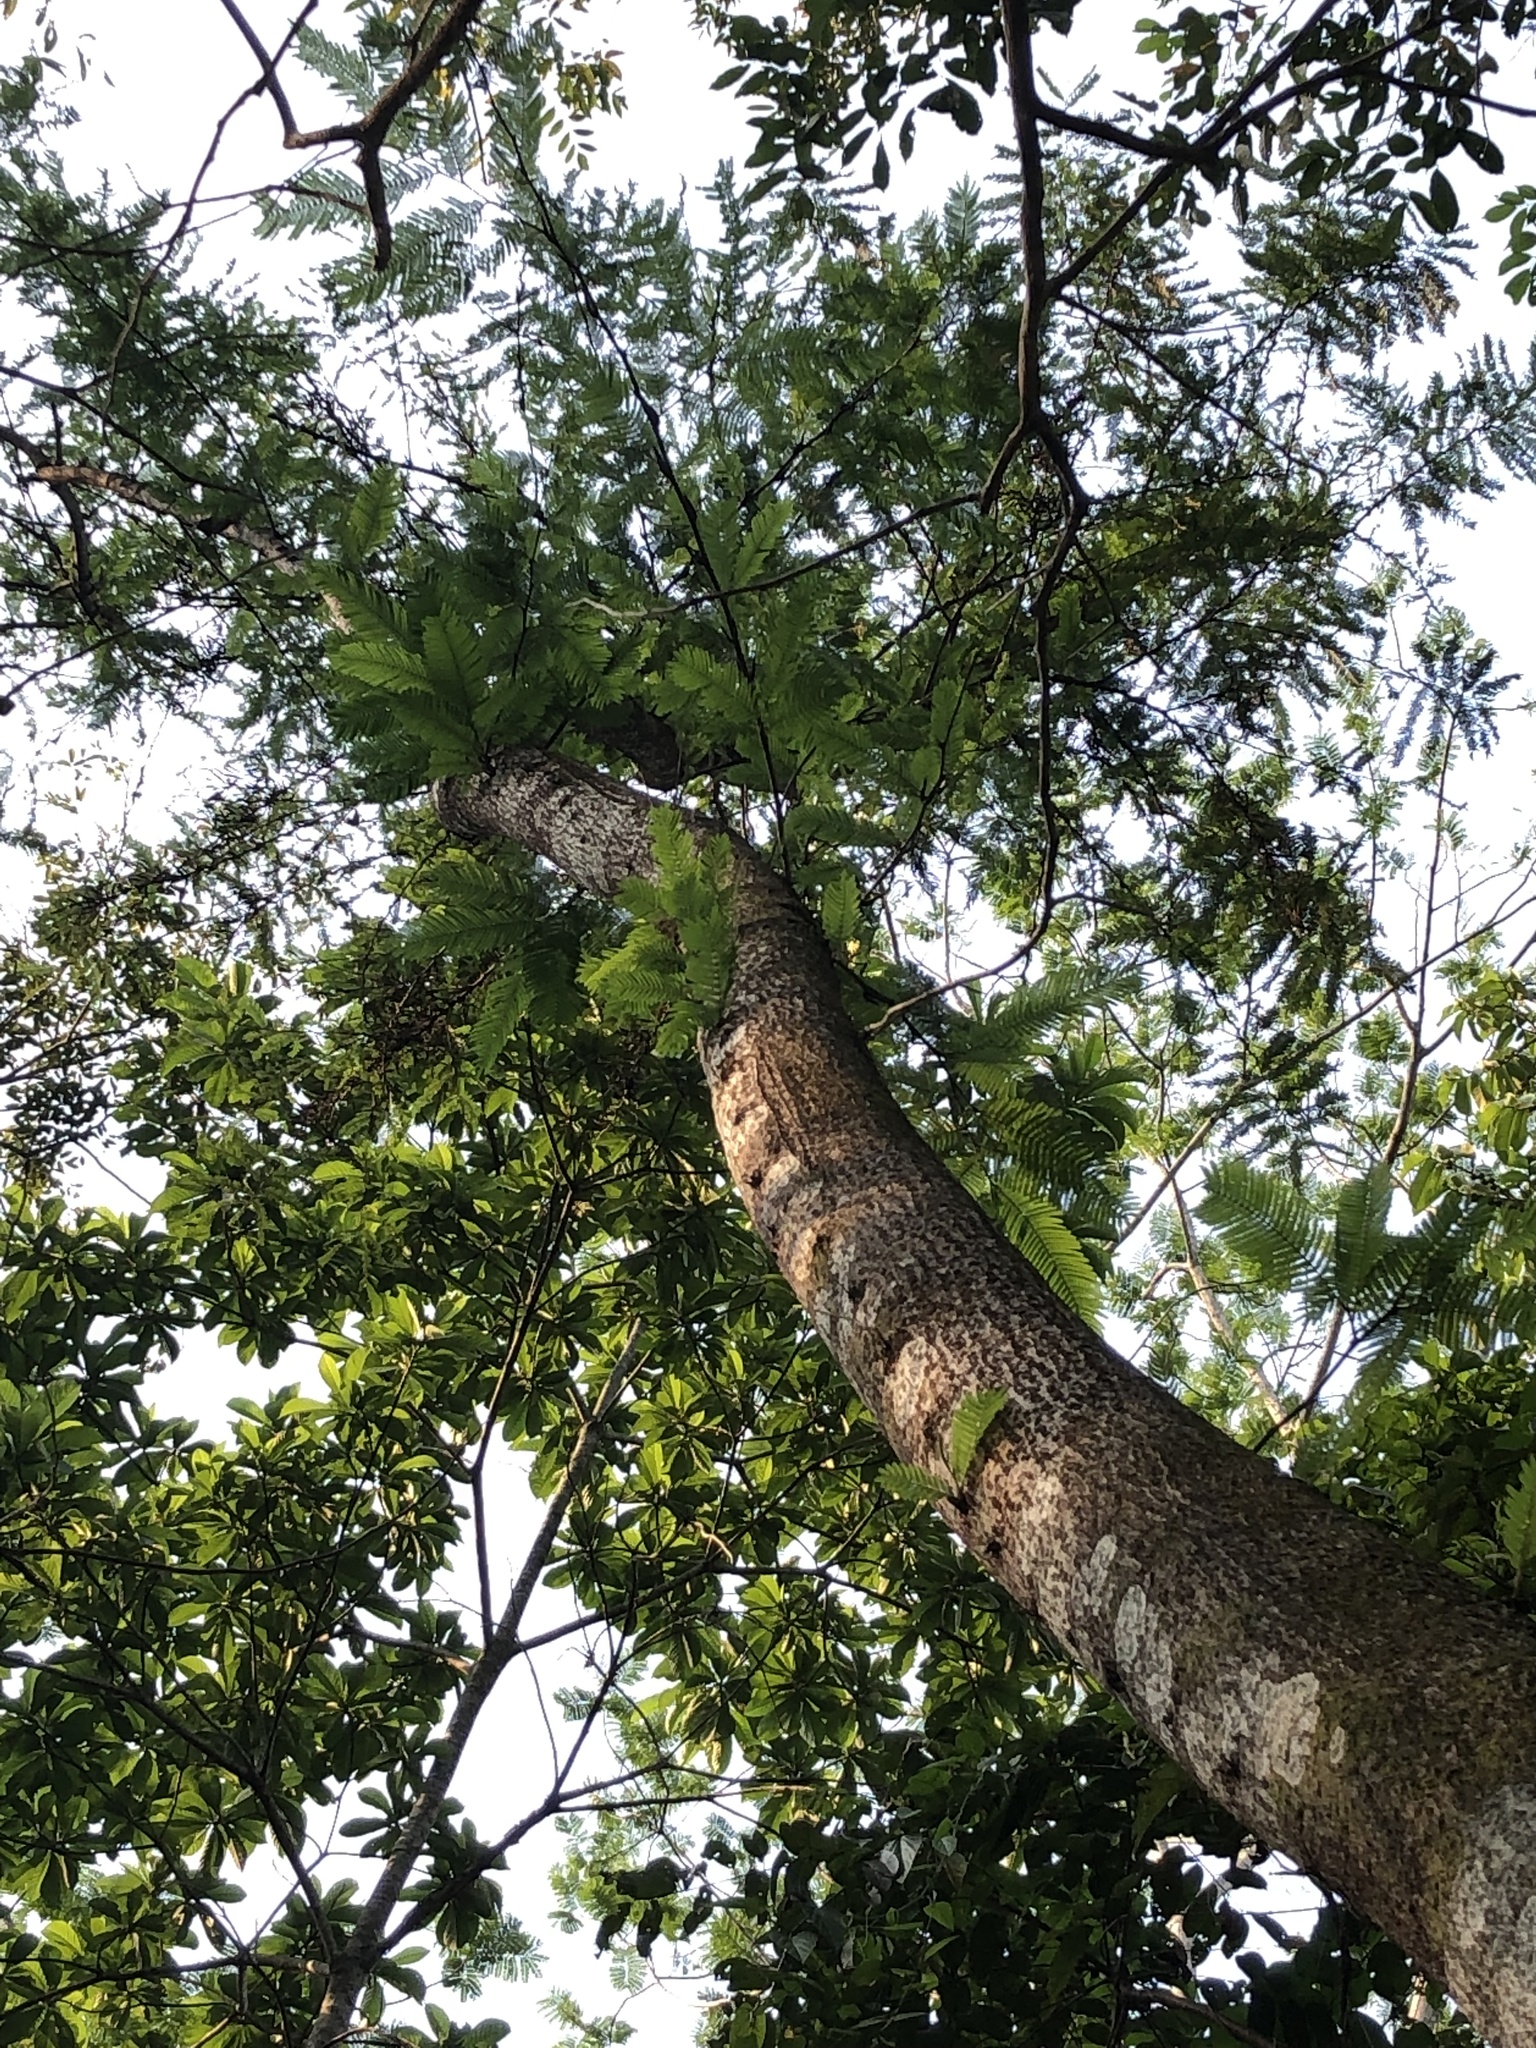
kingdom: Plantae
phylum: Tracheophyta
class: Magnoliopsida
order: Fabales
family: Fabaceae
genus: Vachellia
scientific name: Vachellia cornigera
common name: Bullhorn wattle
